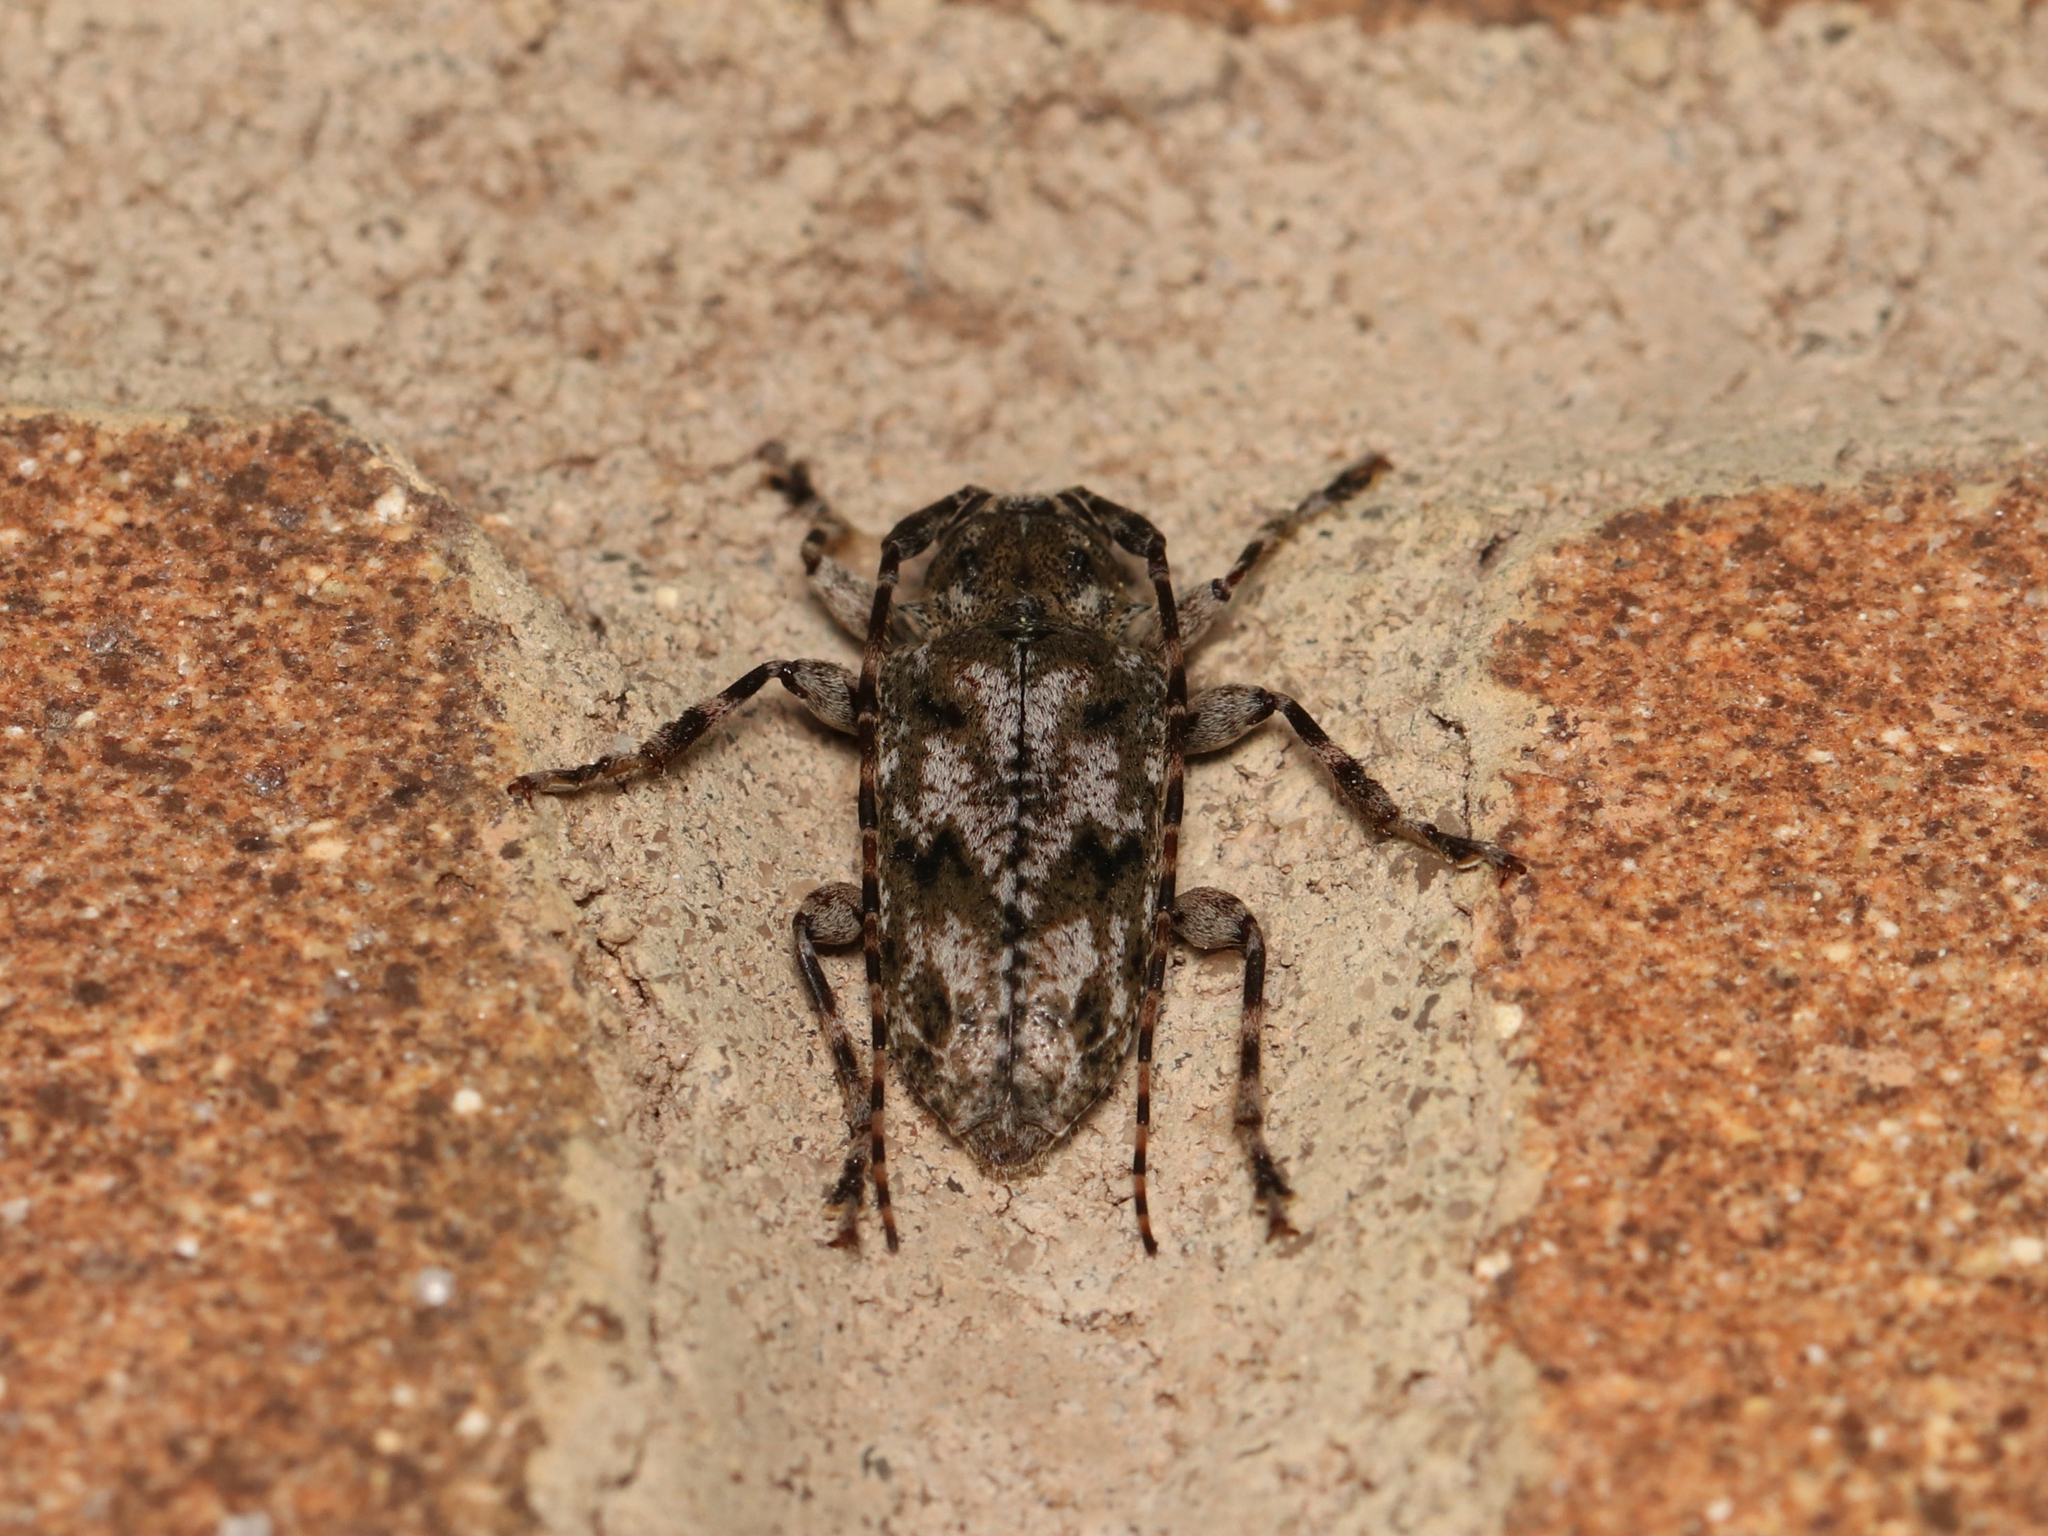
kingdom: Animalia
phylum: Arthropoda
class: Insecta
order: Coleoptera
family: Cerambycidae
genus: Aegomorphus
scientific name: Aegomorphus modestus
